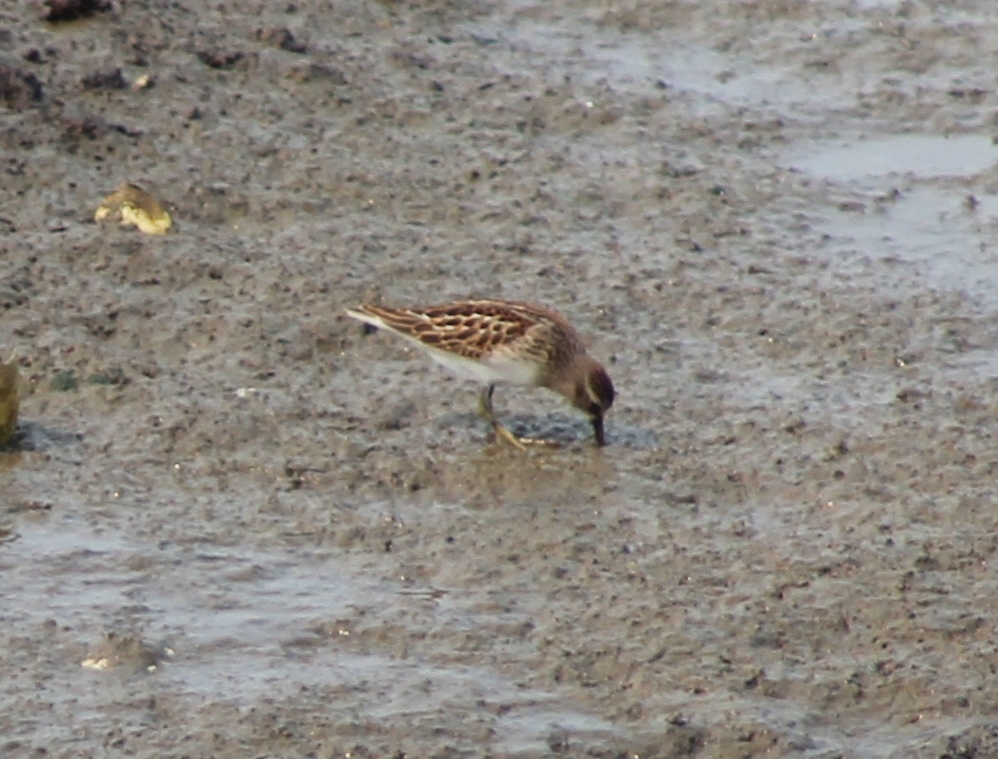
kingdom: Animalia
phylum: Chordata
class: Aves
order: Charadriiformes
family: Scolopacidae
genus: Calidris
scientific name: Calidris minutilla
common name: Least sandpiper
